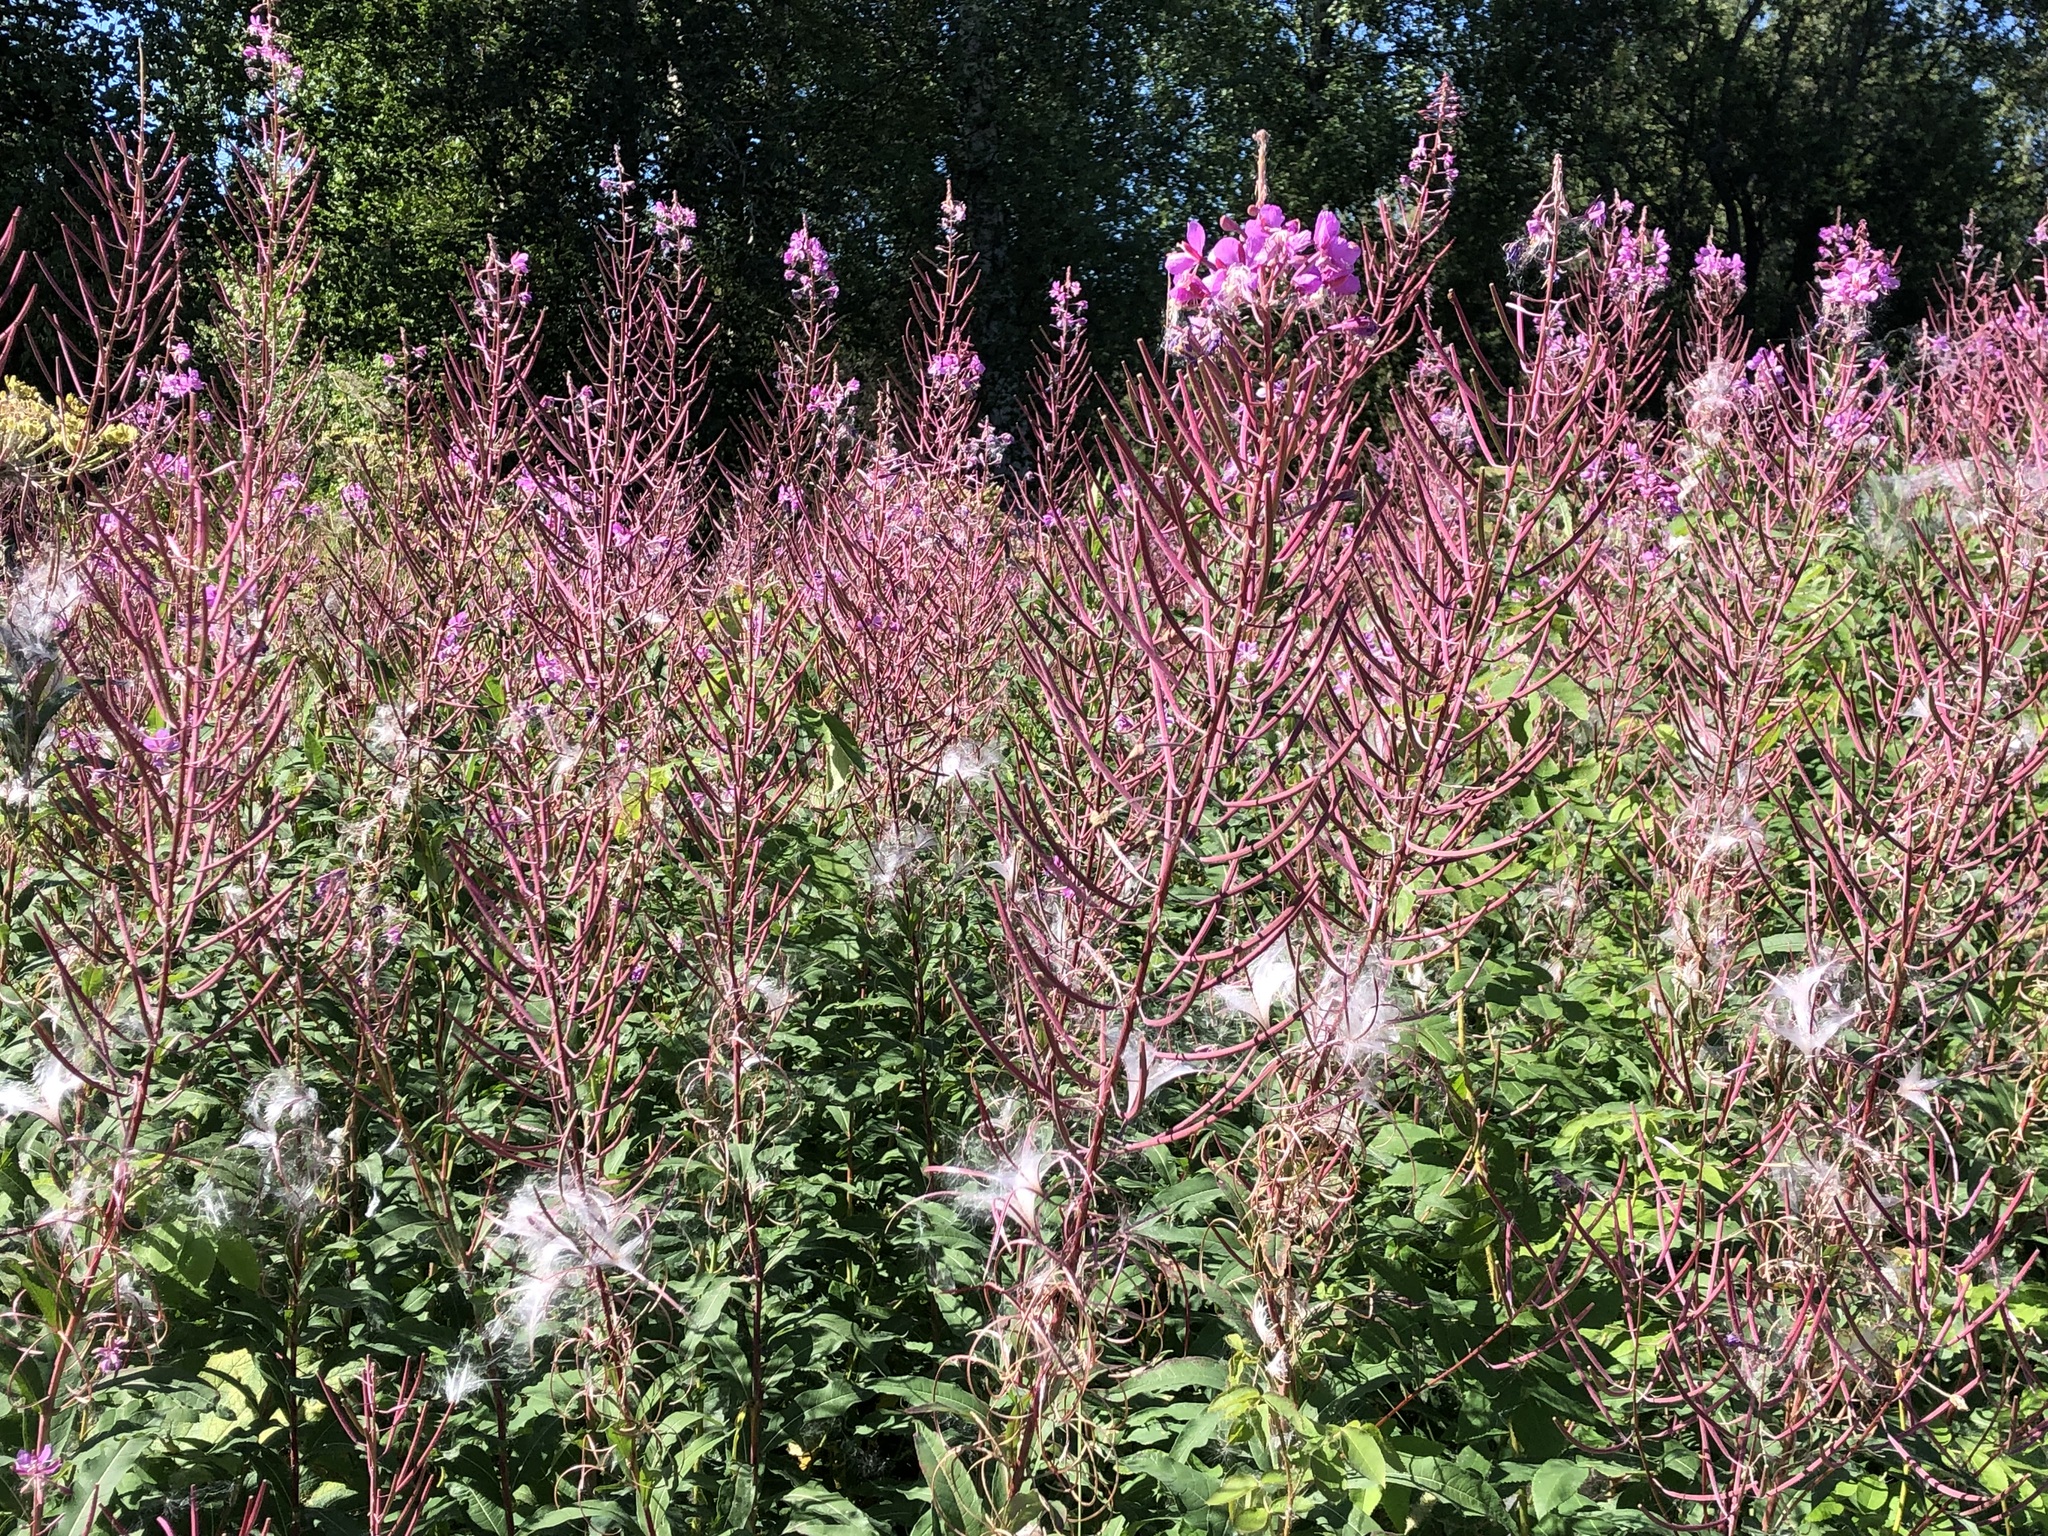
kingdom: Plantae
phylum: Tracheophyta
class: Magnoliopsida
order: Myrtales
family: Onagraceae
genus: Chamaenerion
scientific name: Chamaenerion angustifolium
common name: Fireweed
